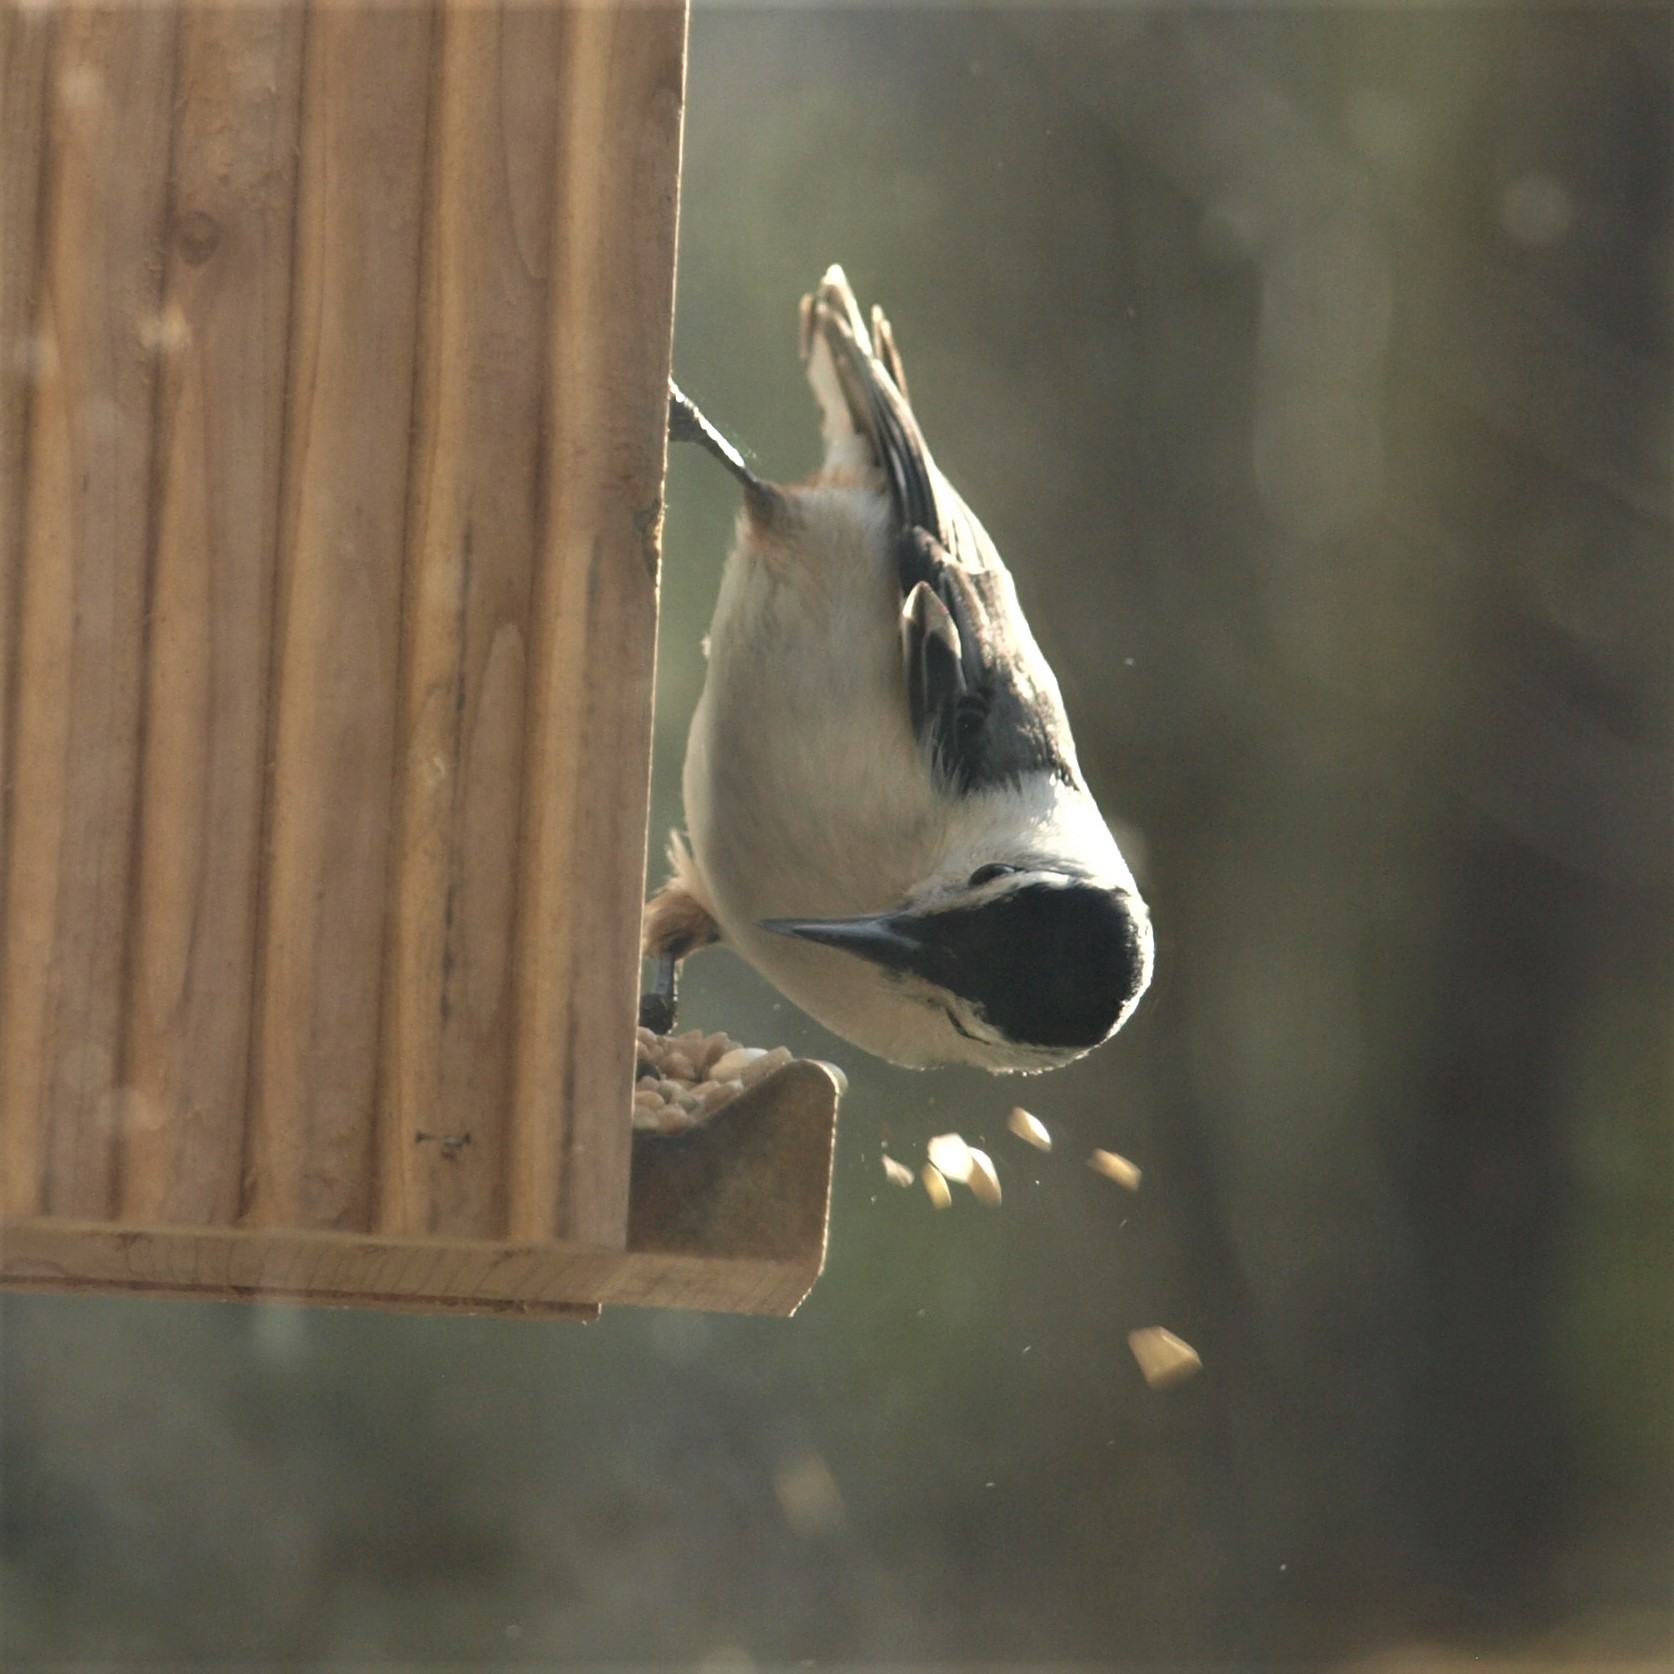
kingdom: Animalia
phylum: Chordata
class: Aves
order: Passeriformes
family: Sittidae
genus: Sitta
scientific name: Sitta carolinensis
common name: White-breasted nuthatch
